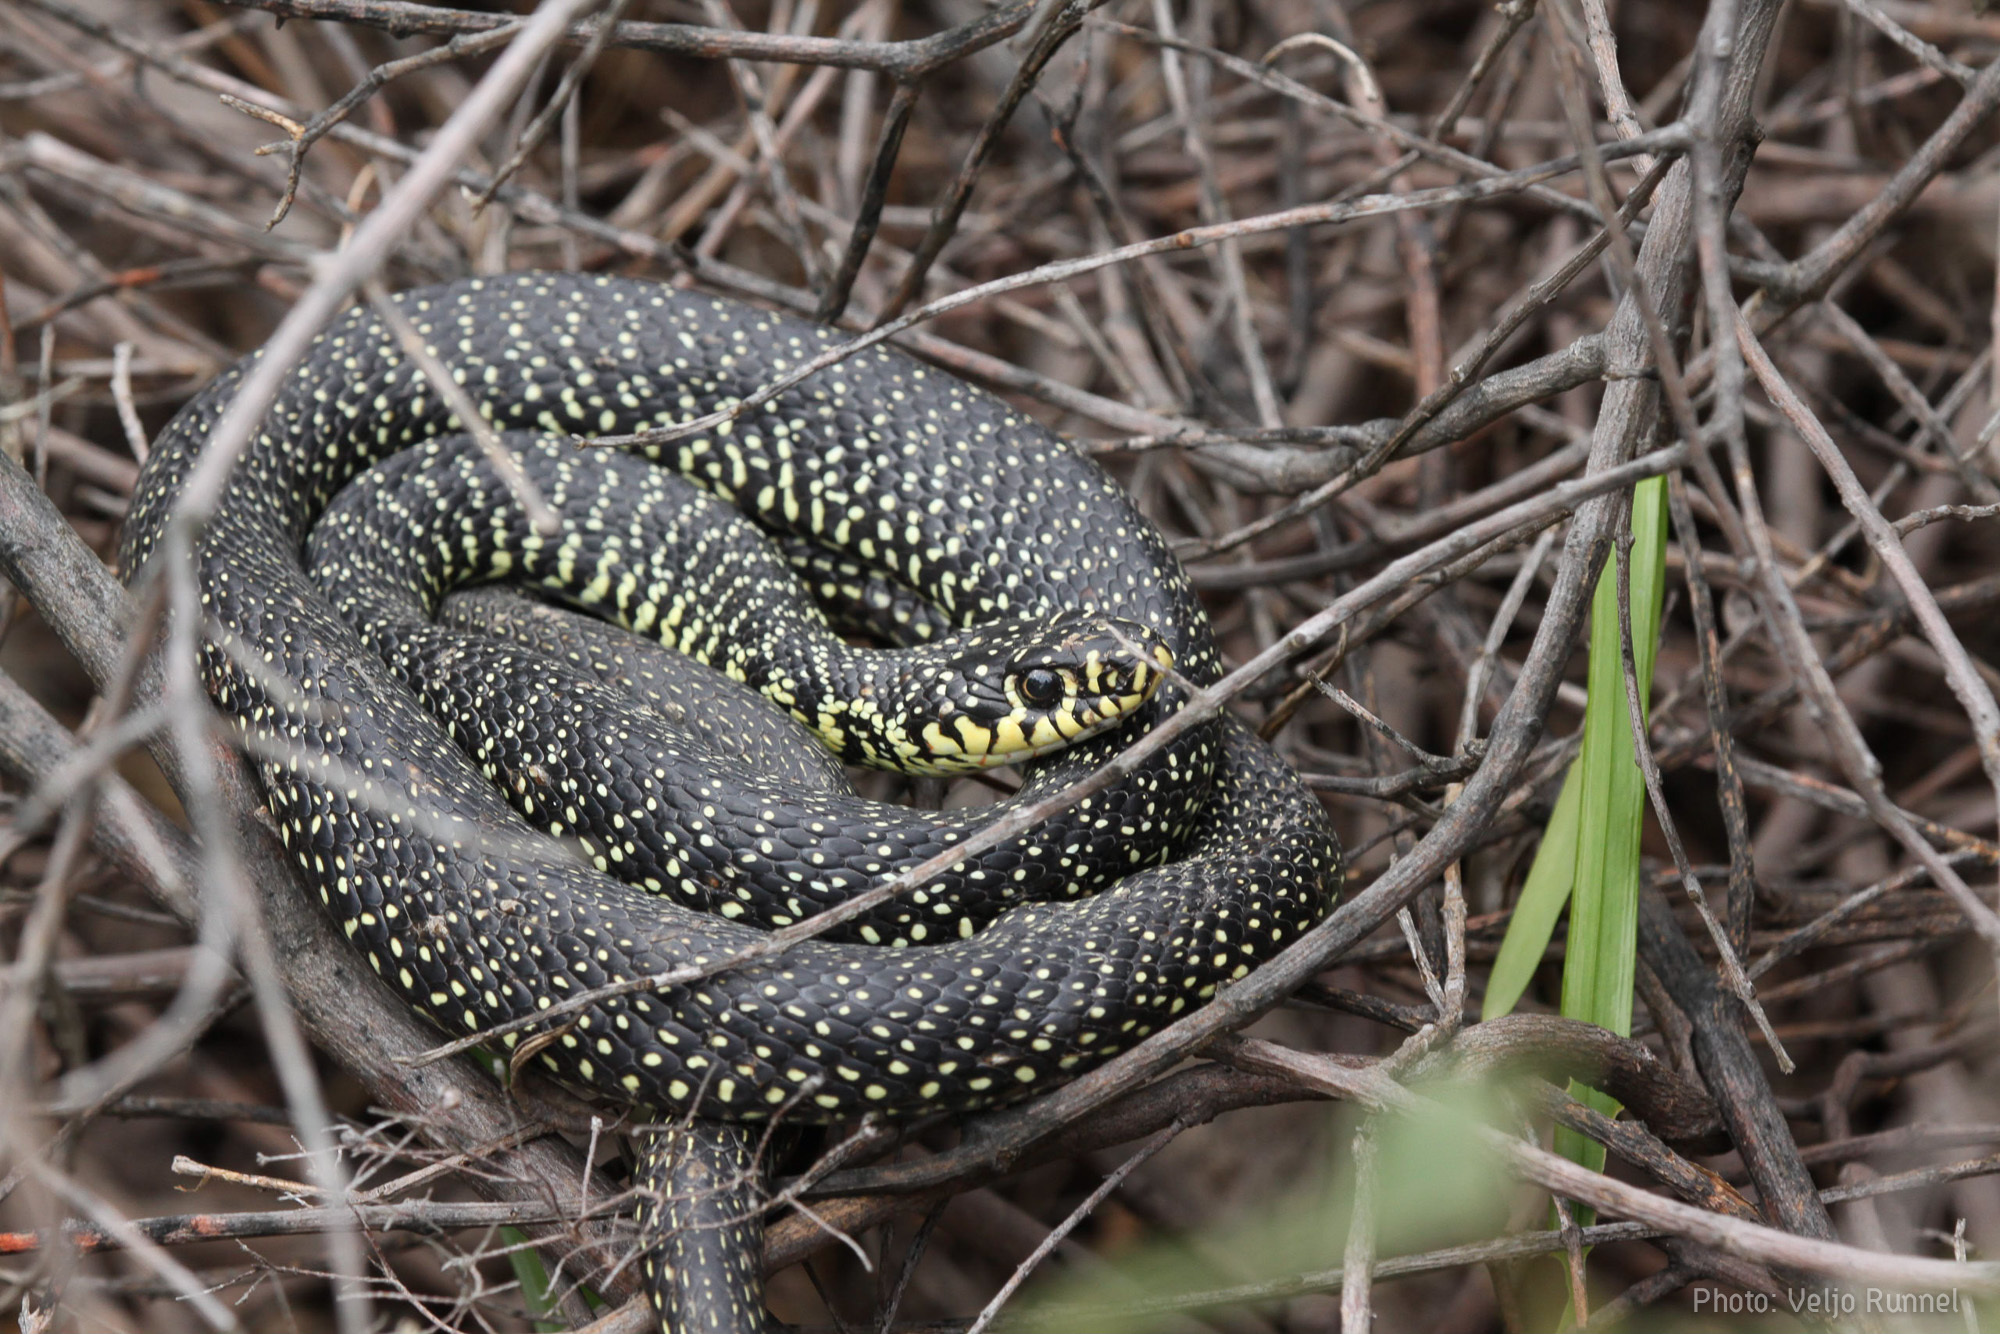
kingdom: Animalia
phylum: Chordata
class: Squamata
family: Colubridae
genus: Hierophis
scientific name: Hierophis viridiflavus
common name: Green whip snake
